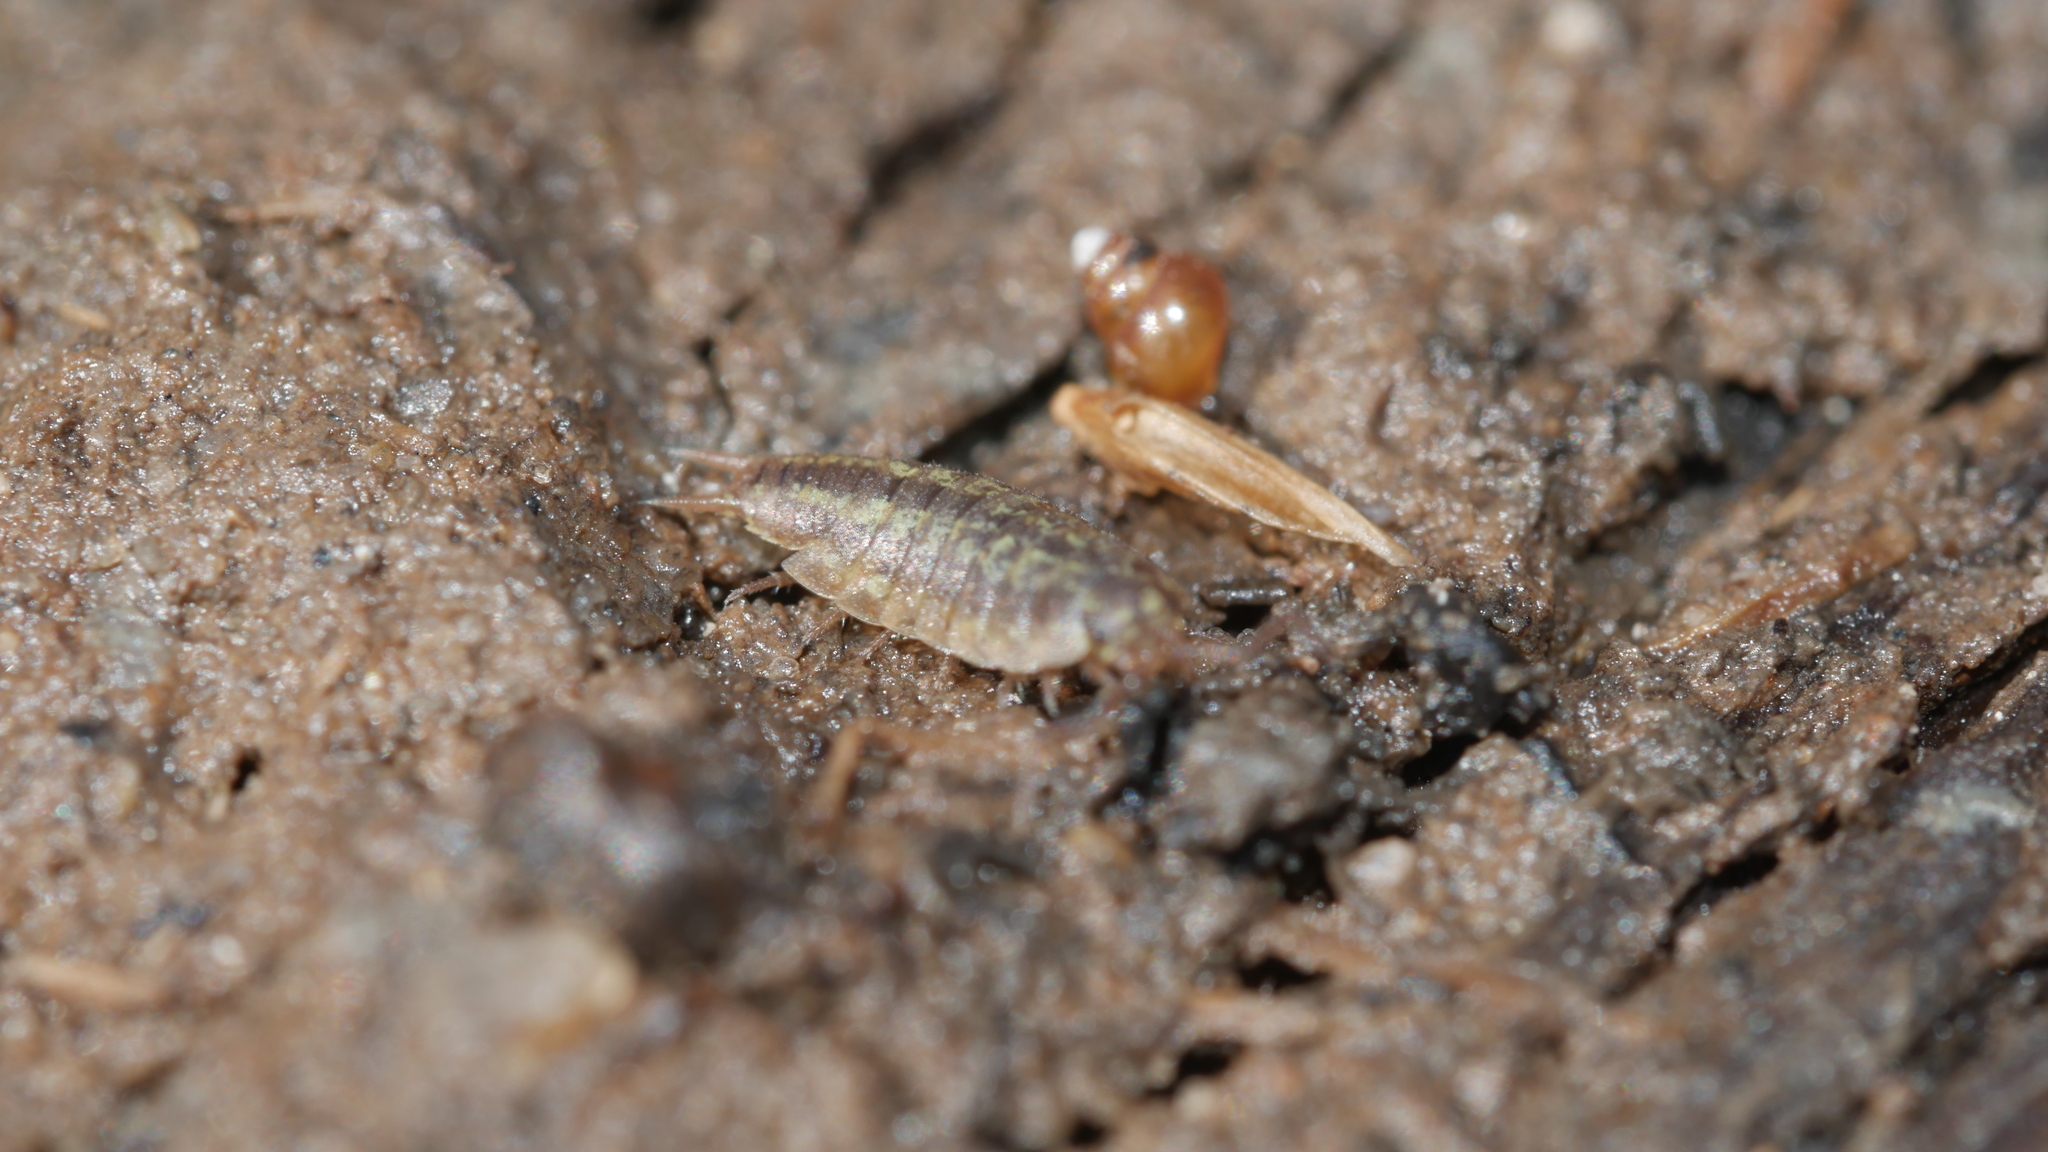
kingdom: Animalia
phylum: Arthropoda
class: Malacostraca
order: Isopoda
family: Halophilosciidae
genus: Littorophiloscia
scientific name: Littorophiloscia vittata
